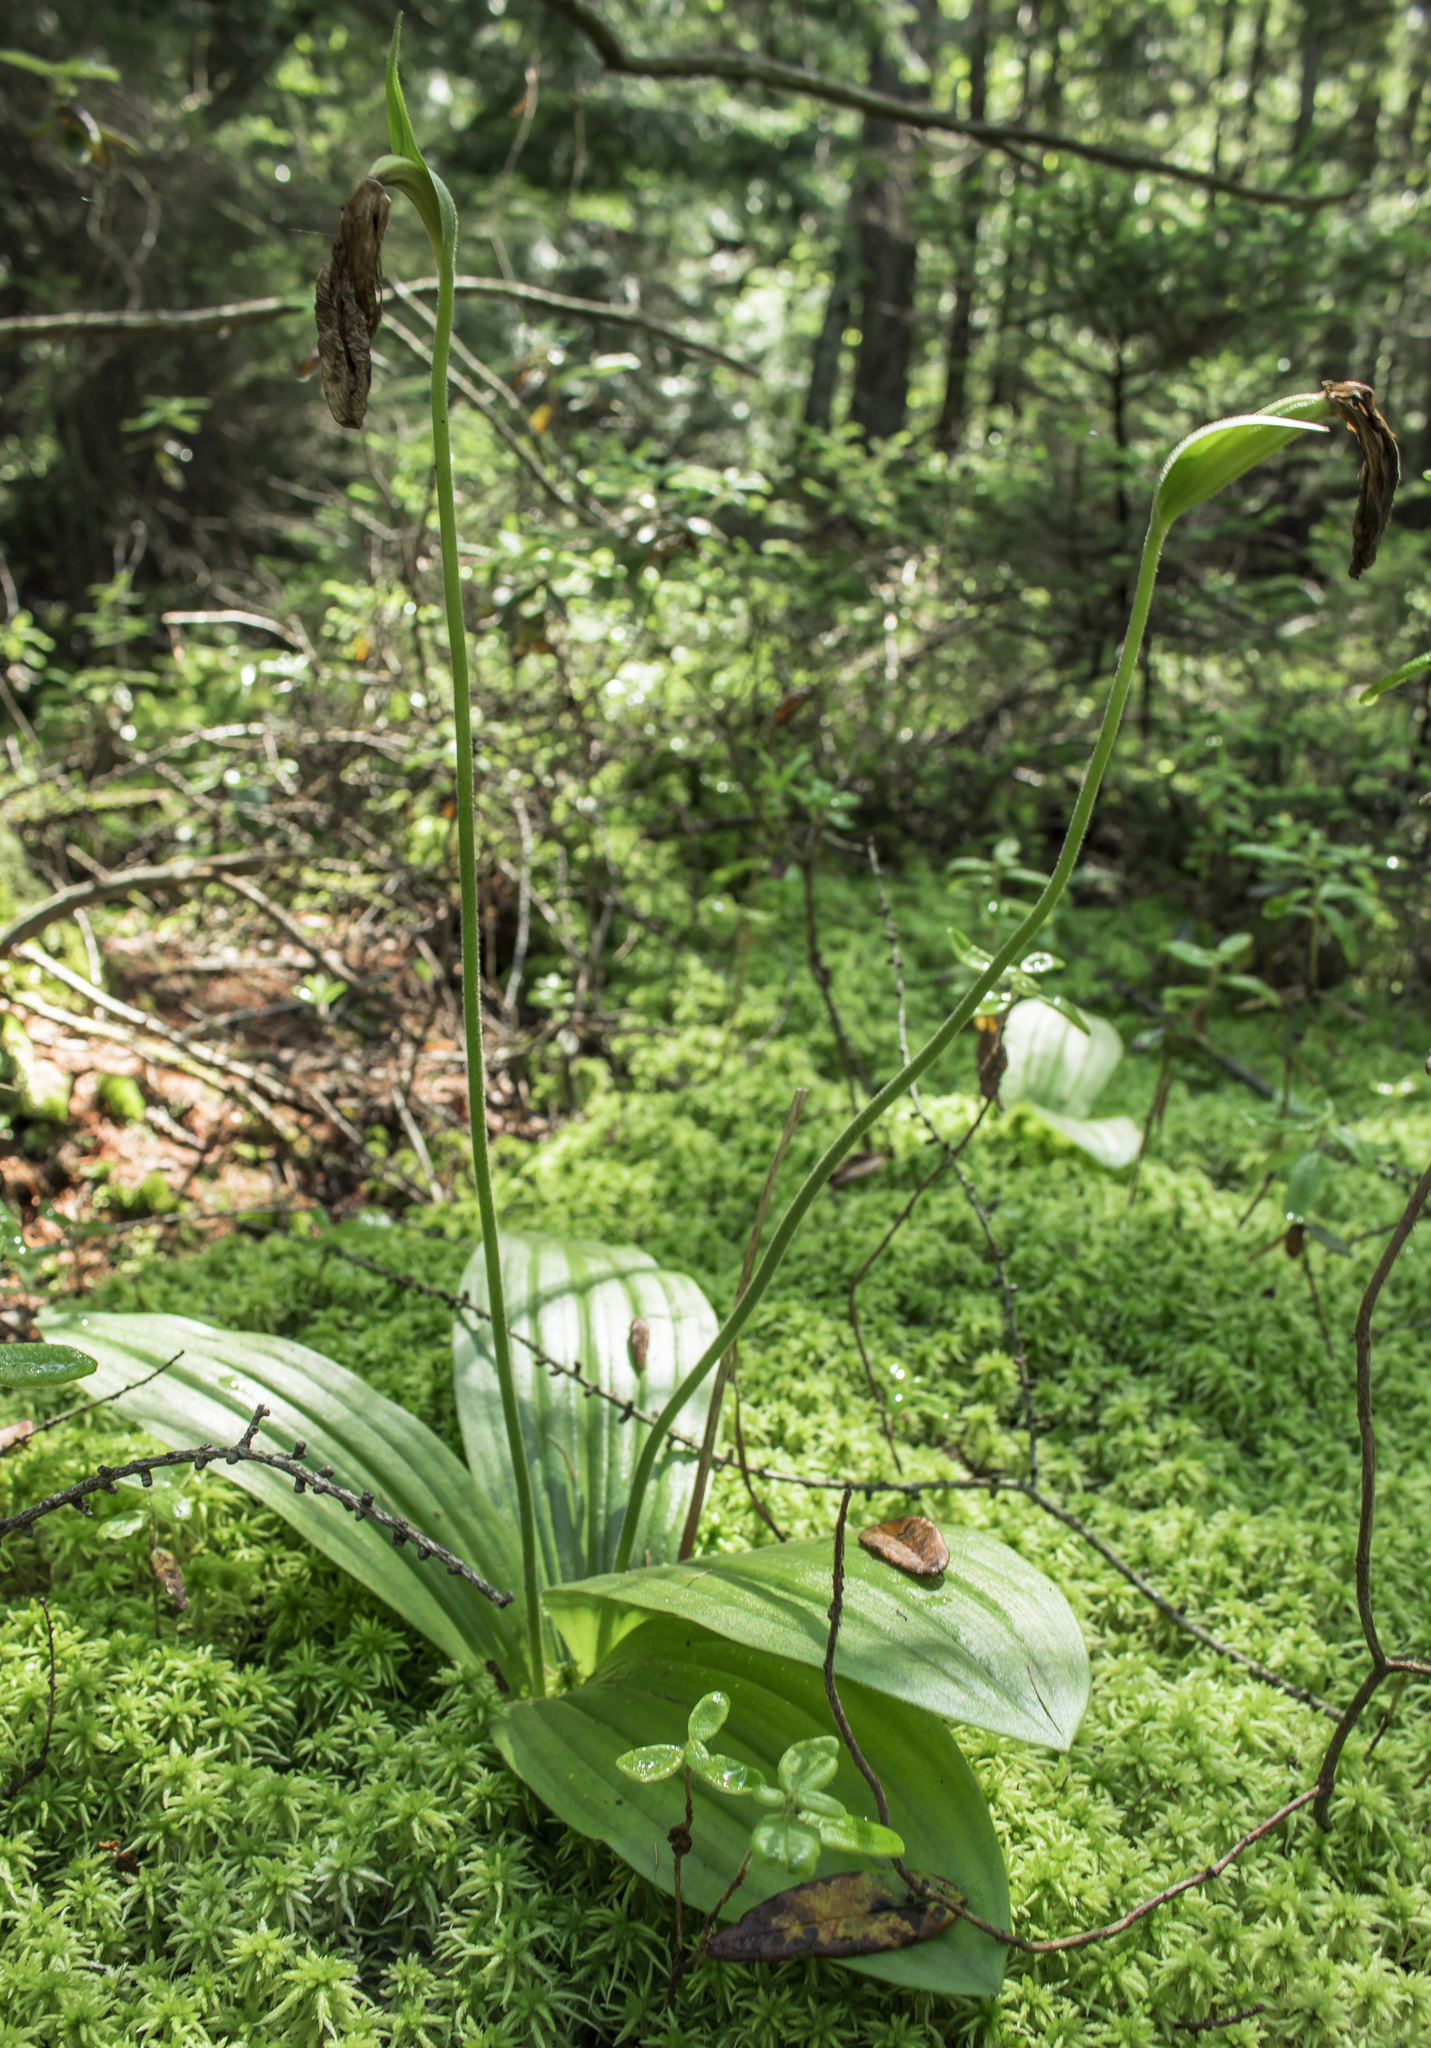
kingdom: Plantae
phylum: Tracheophyta
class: Liliopsida
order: Asparagales
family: Orchidaceae
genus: Cypripedium
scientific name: Cypripedium acaule
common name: Pink lady's-slipper
